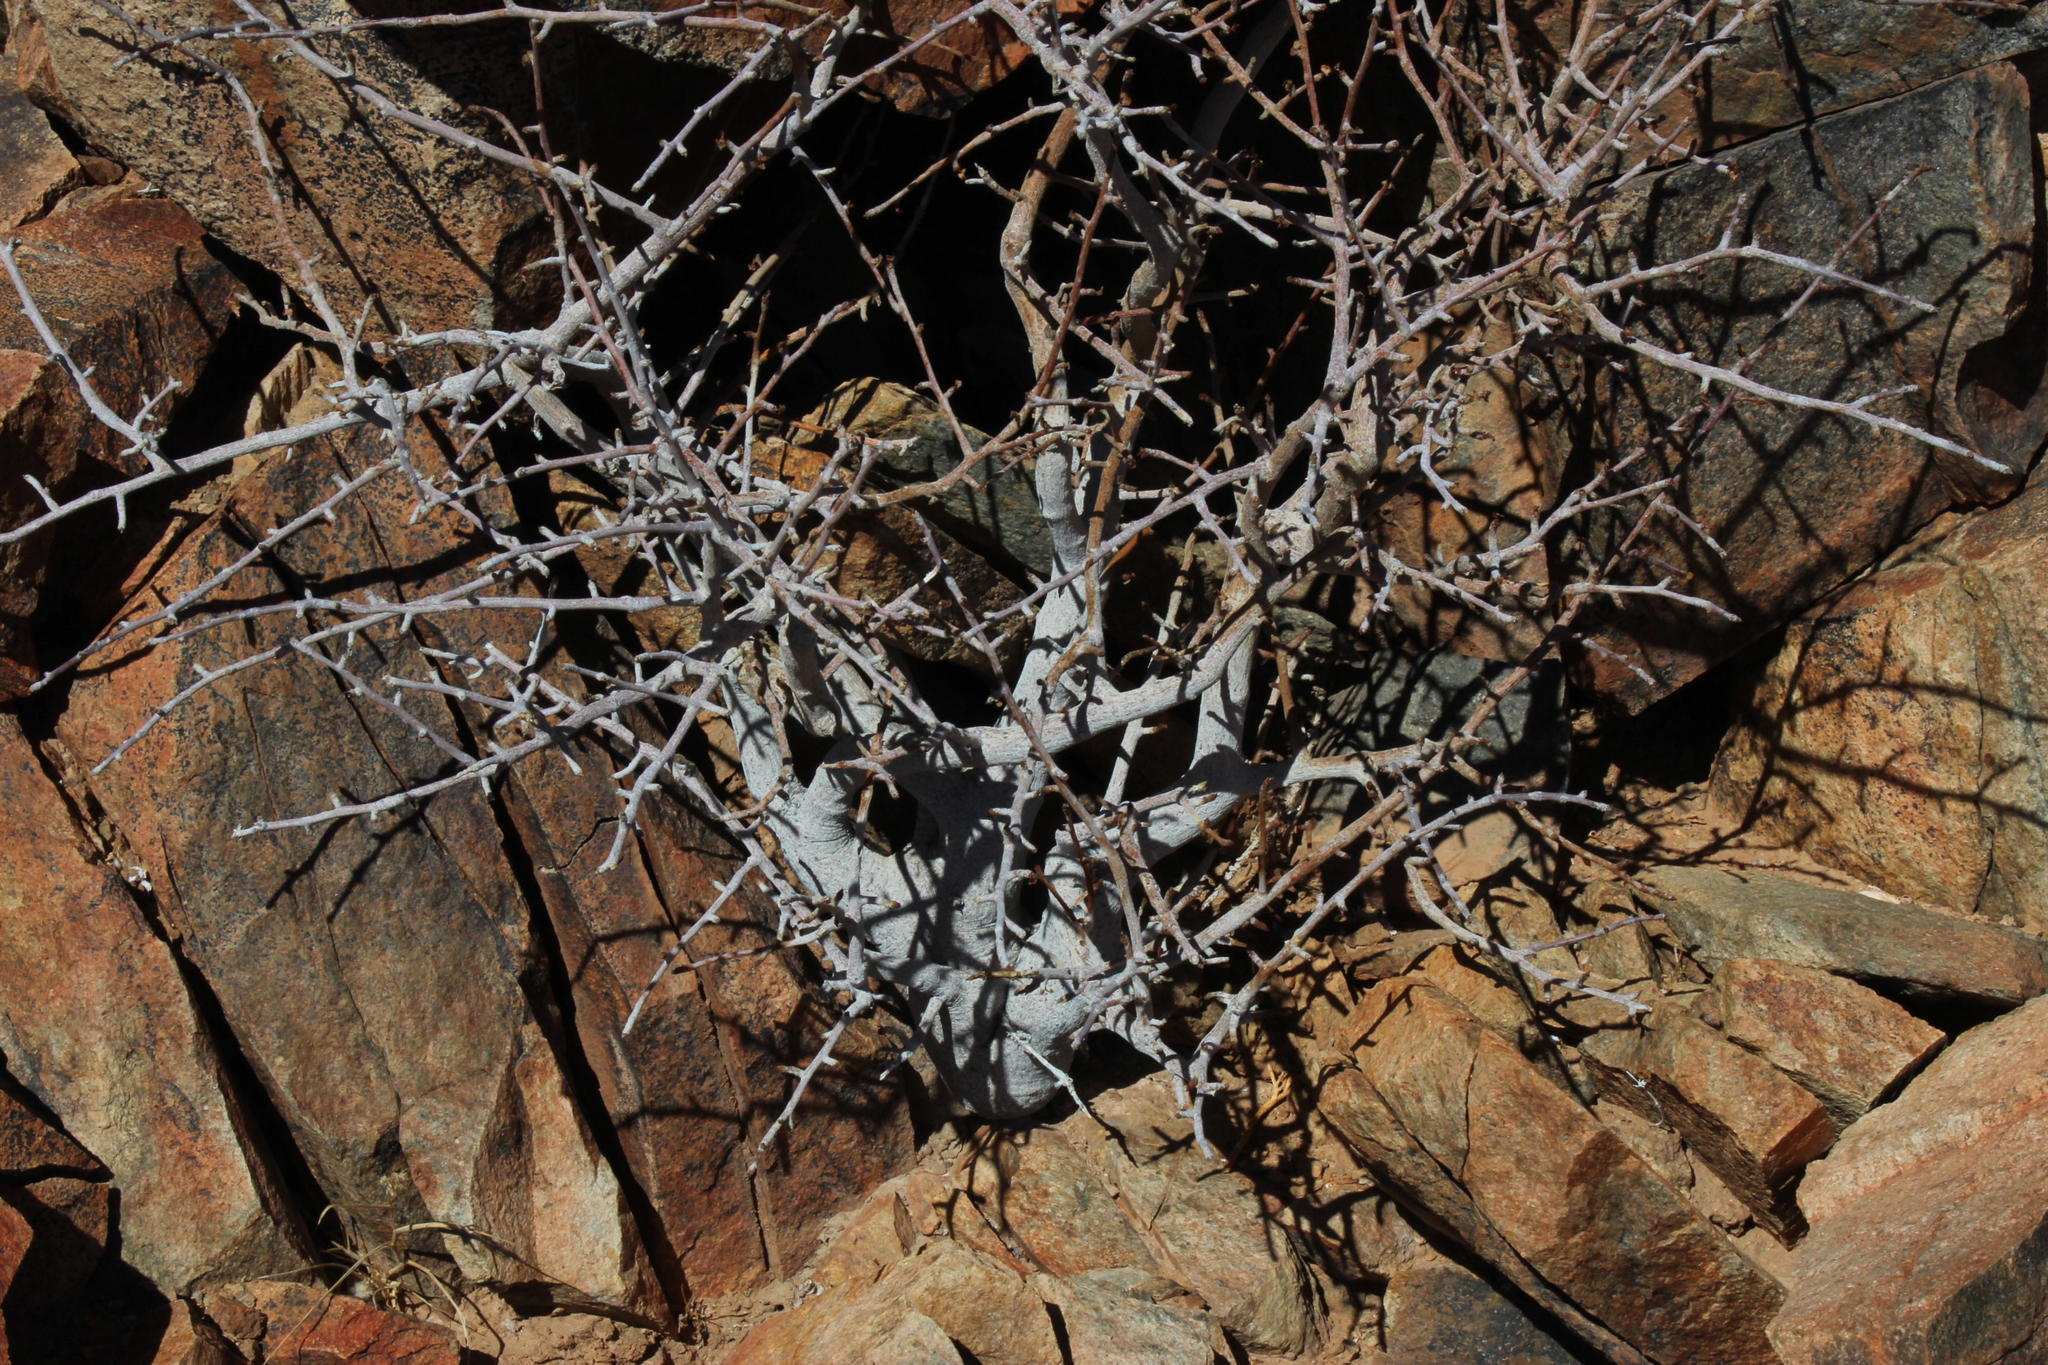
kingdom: Plantae
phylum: Tracheophyta
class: Magnoliopsida
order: Sapindales
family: Burseraceae
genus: Commiphora
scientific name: Commiphora namaensis
